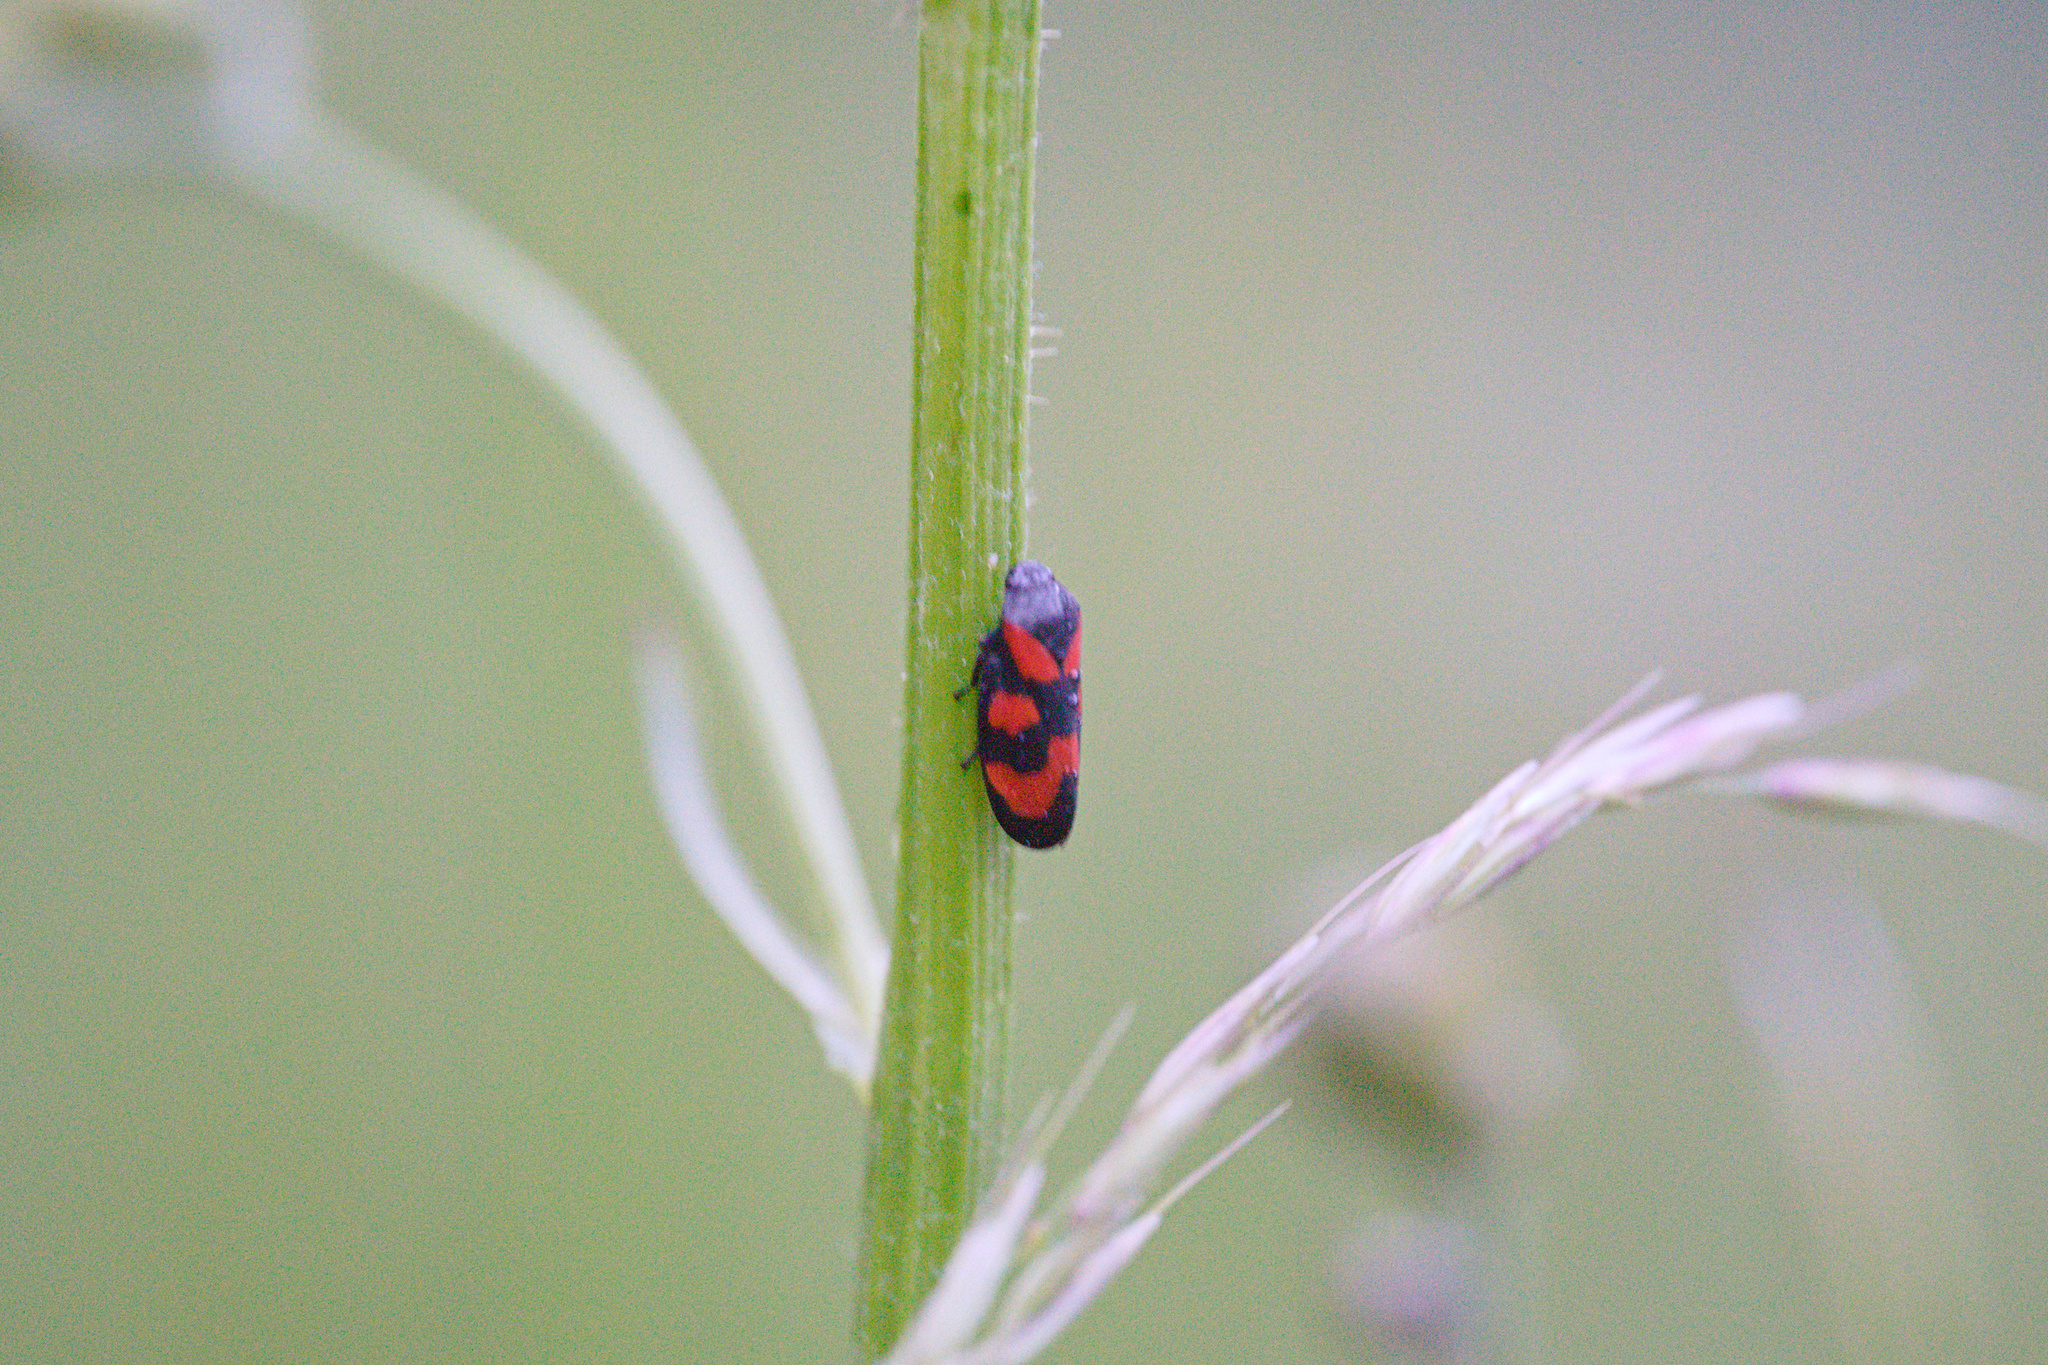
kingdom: Animalia
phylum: Arthropoda
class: Insecta
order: Hemiptera
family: Cercopidae
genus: Cercopis
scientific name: Cercopis vulnerata
